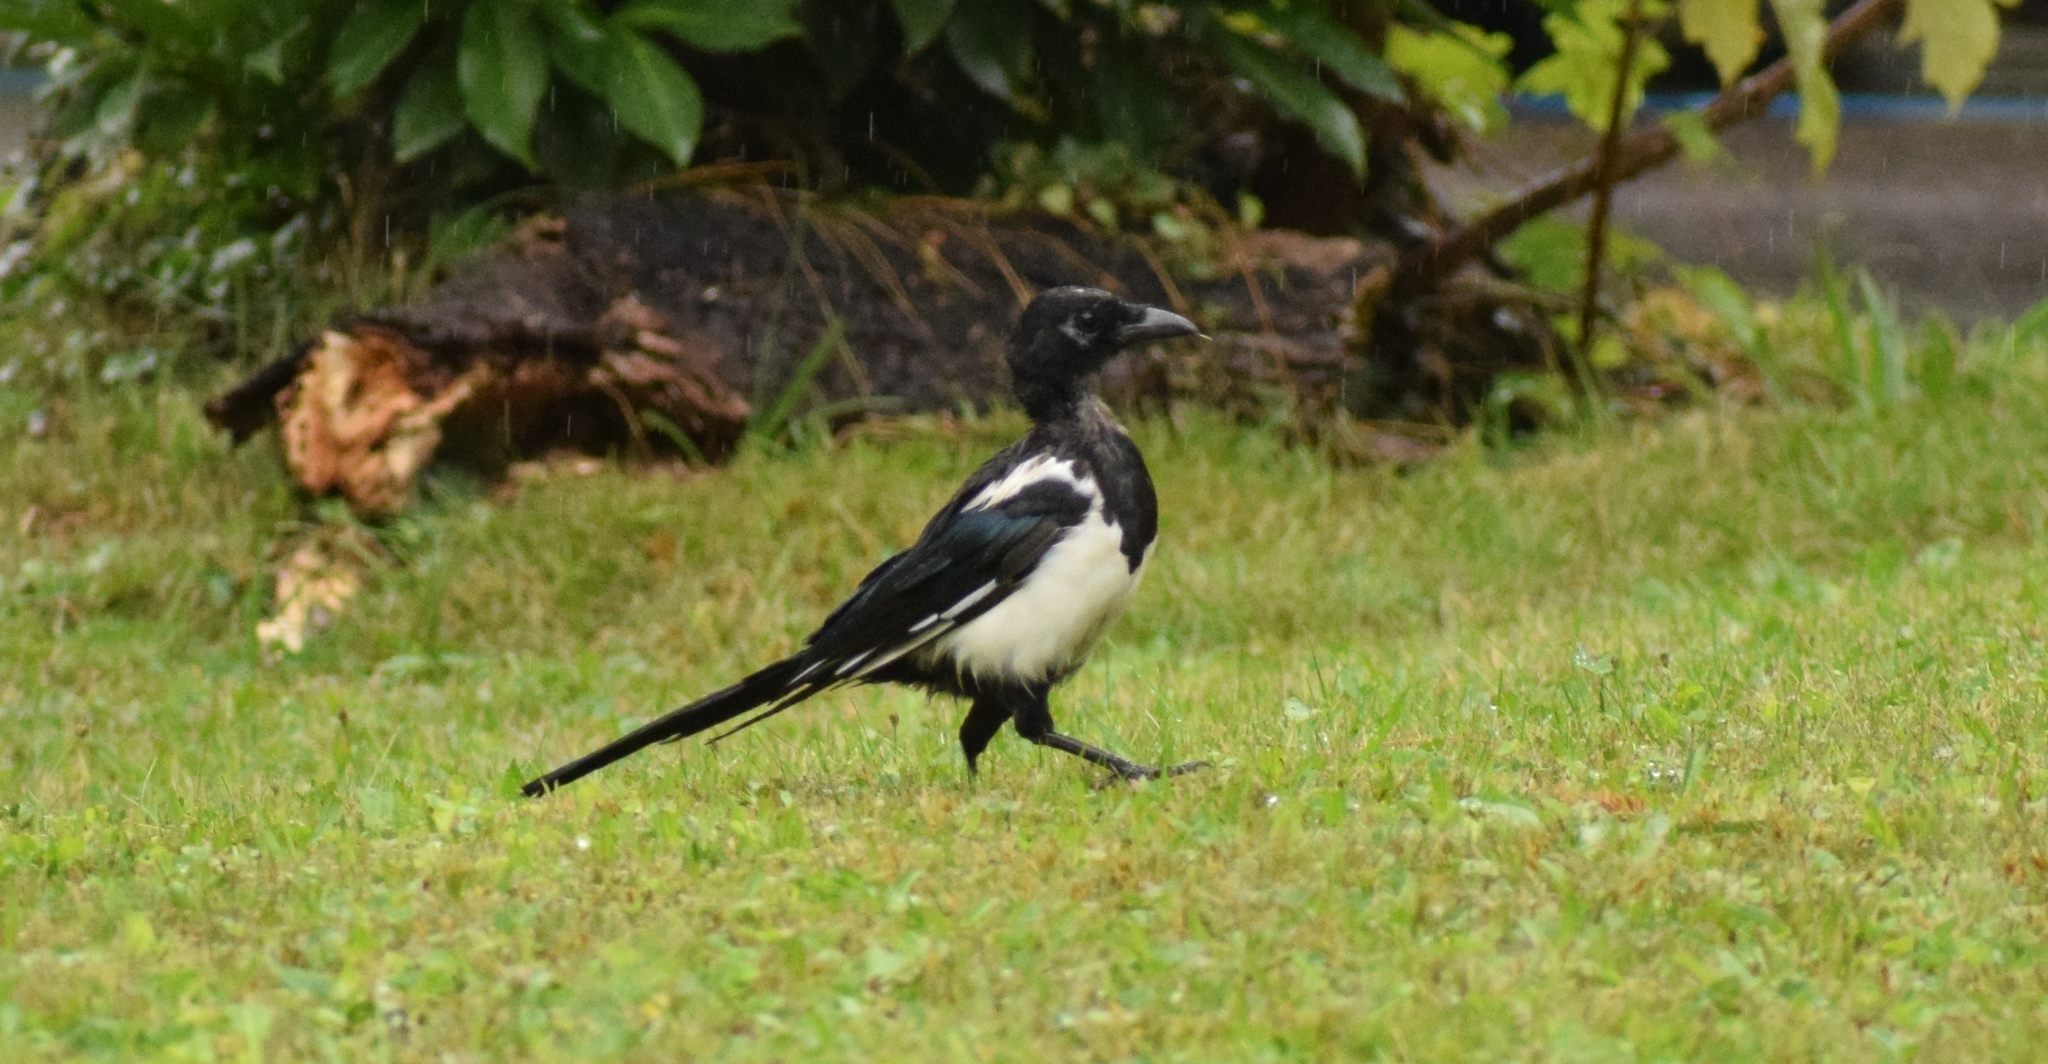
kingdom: Animalia
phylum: Chordata
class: Aves
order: Passeriformes
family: Corvidae
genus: Pica
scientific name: Pica pica
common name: Eurasian magpie
